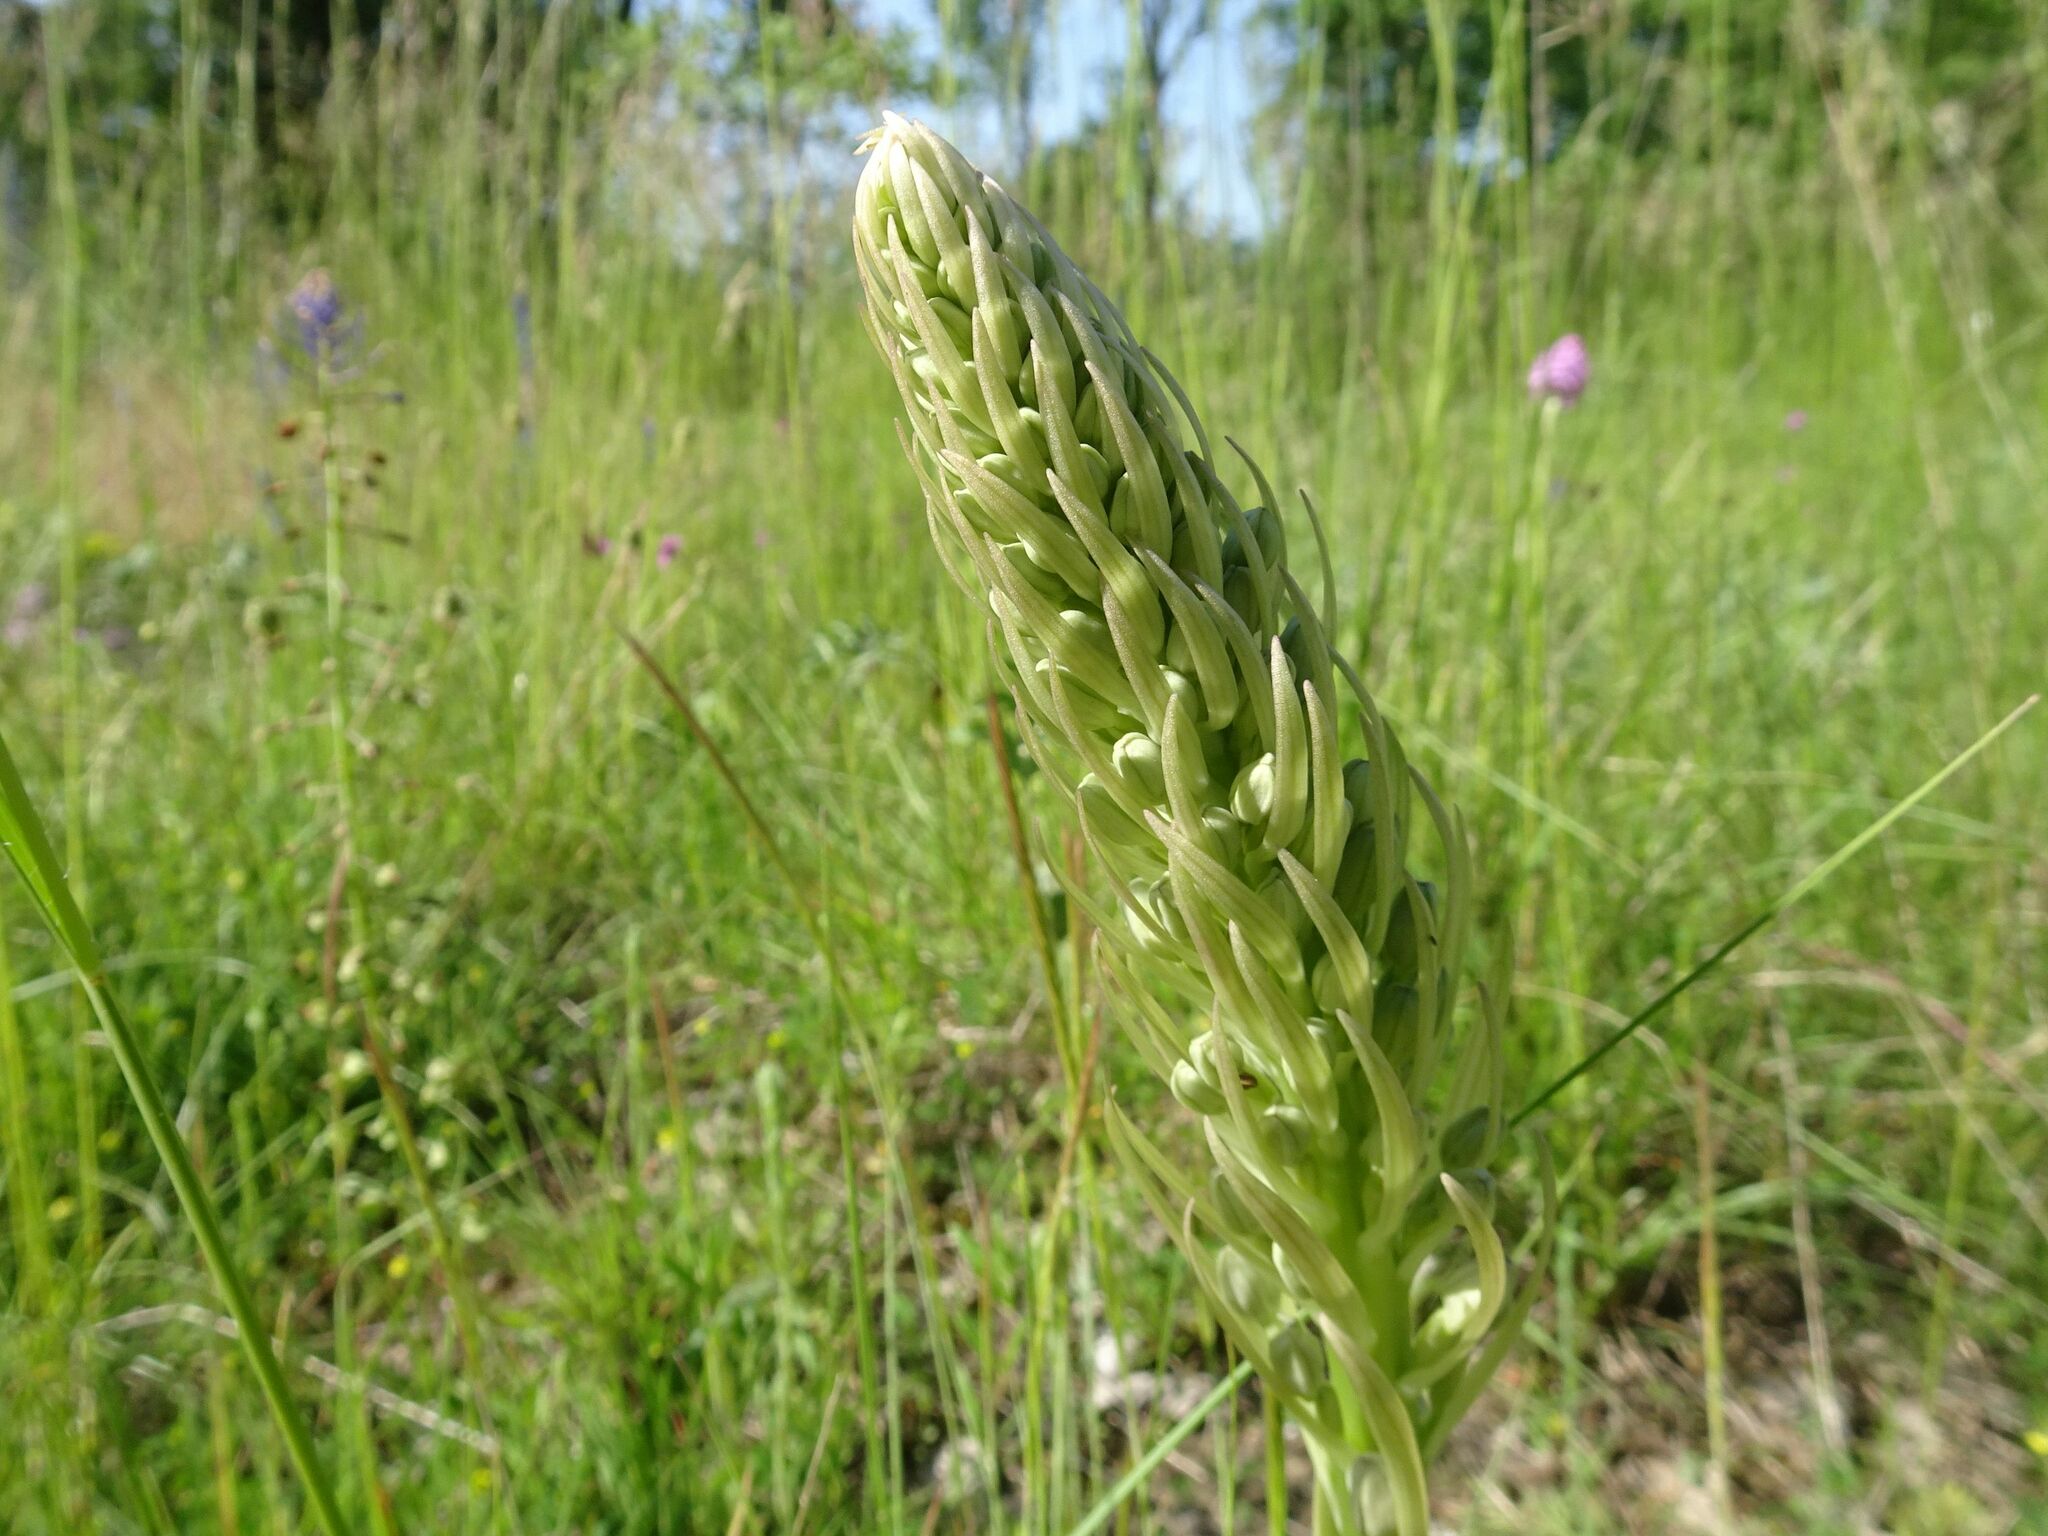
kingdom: Plantae
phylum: Tracheophyta
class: Liliopsida
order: Asparagales
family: Orchidaceae
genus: Himantoglossum
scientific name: Himantoglossum hircinum
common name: Lizard orchid
